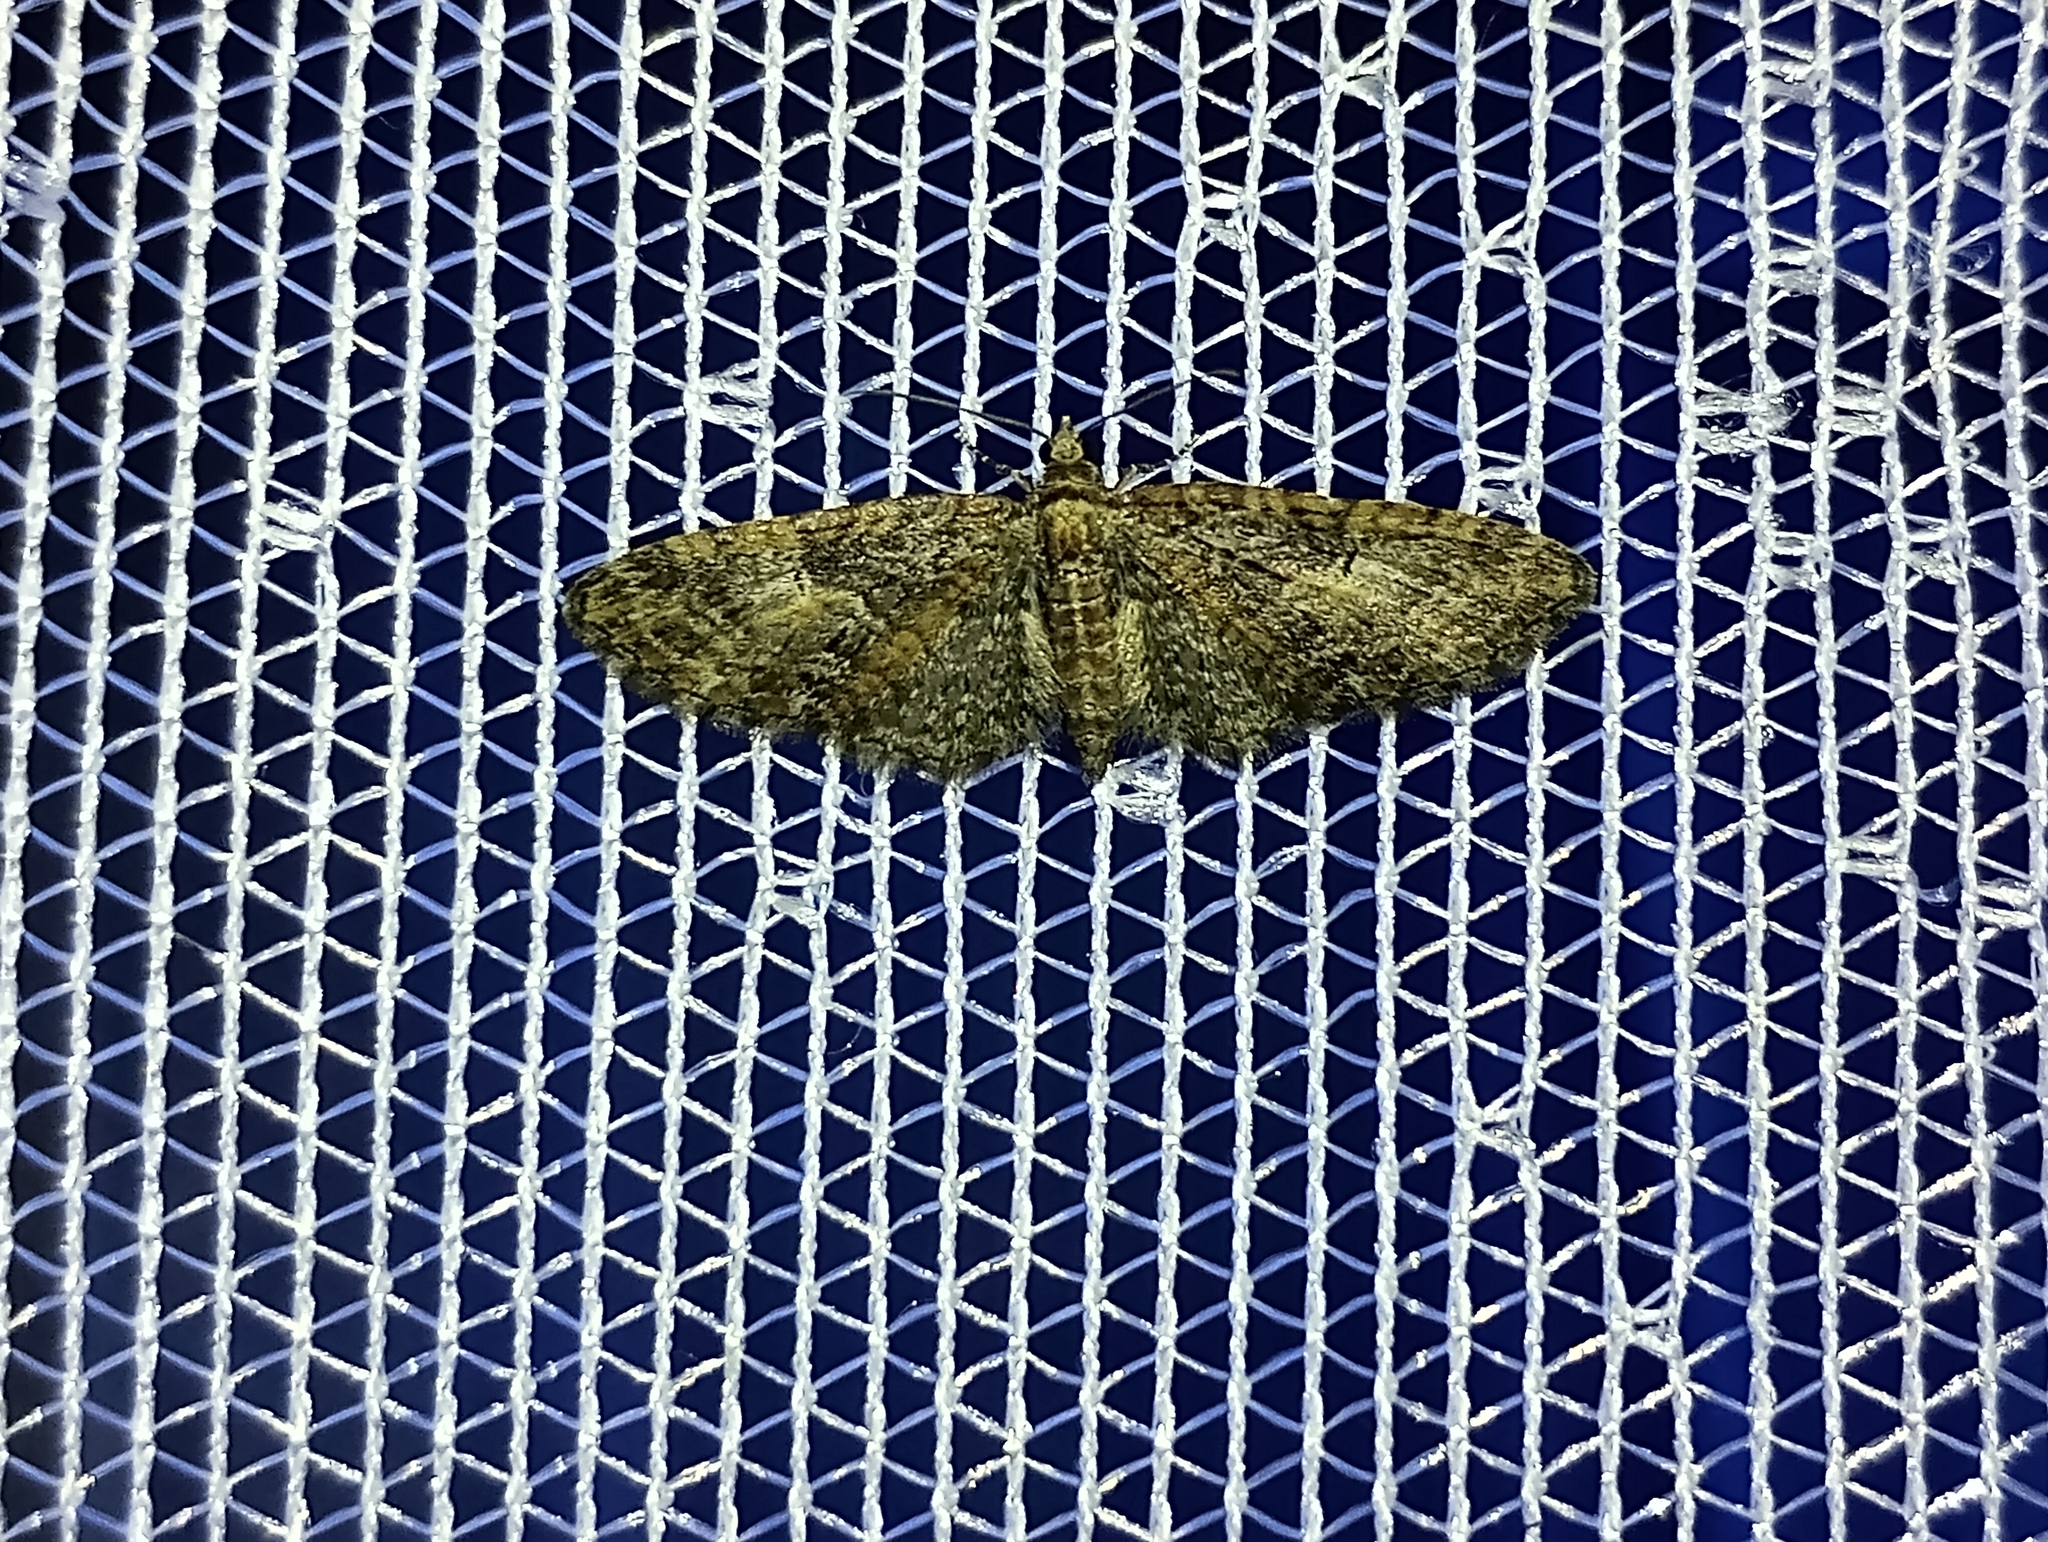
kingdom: Animalia
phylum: Arthropoda
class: Insecta
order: Lepidoptera
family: Geometridae
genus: Eupithecia
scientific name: Eupithecia abbreviata
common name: Brindled pug
